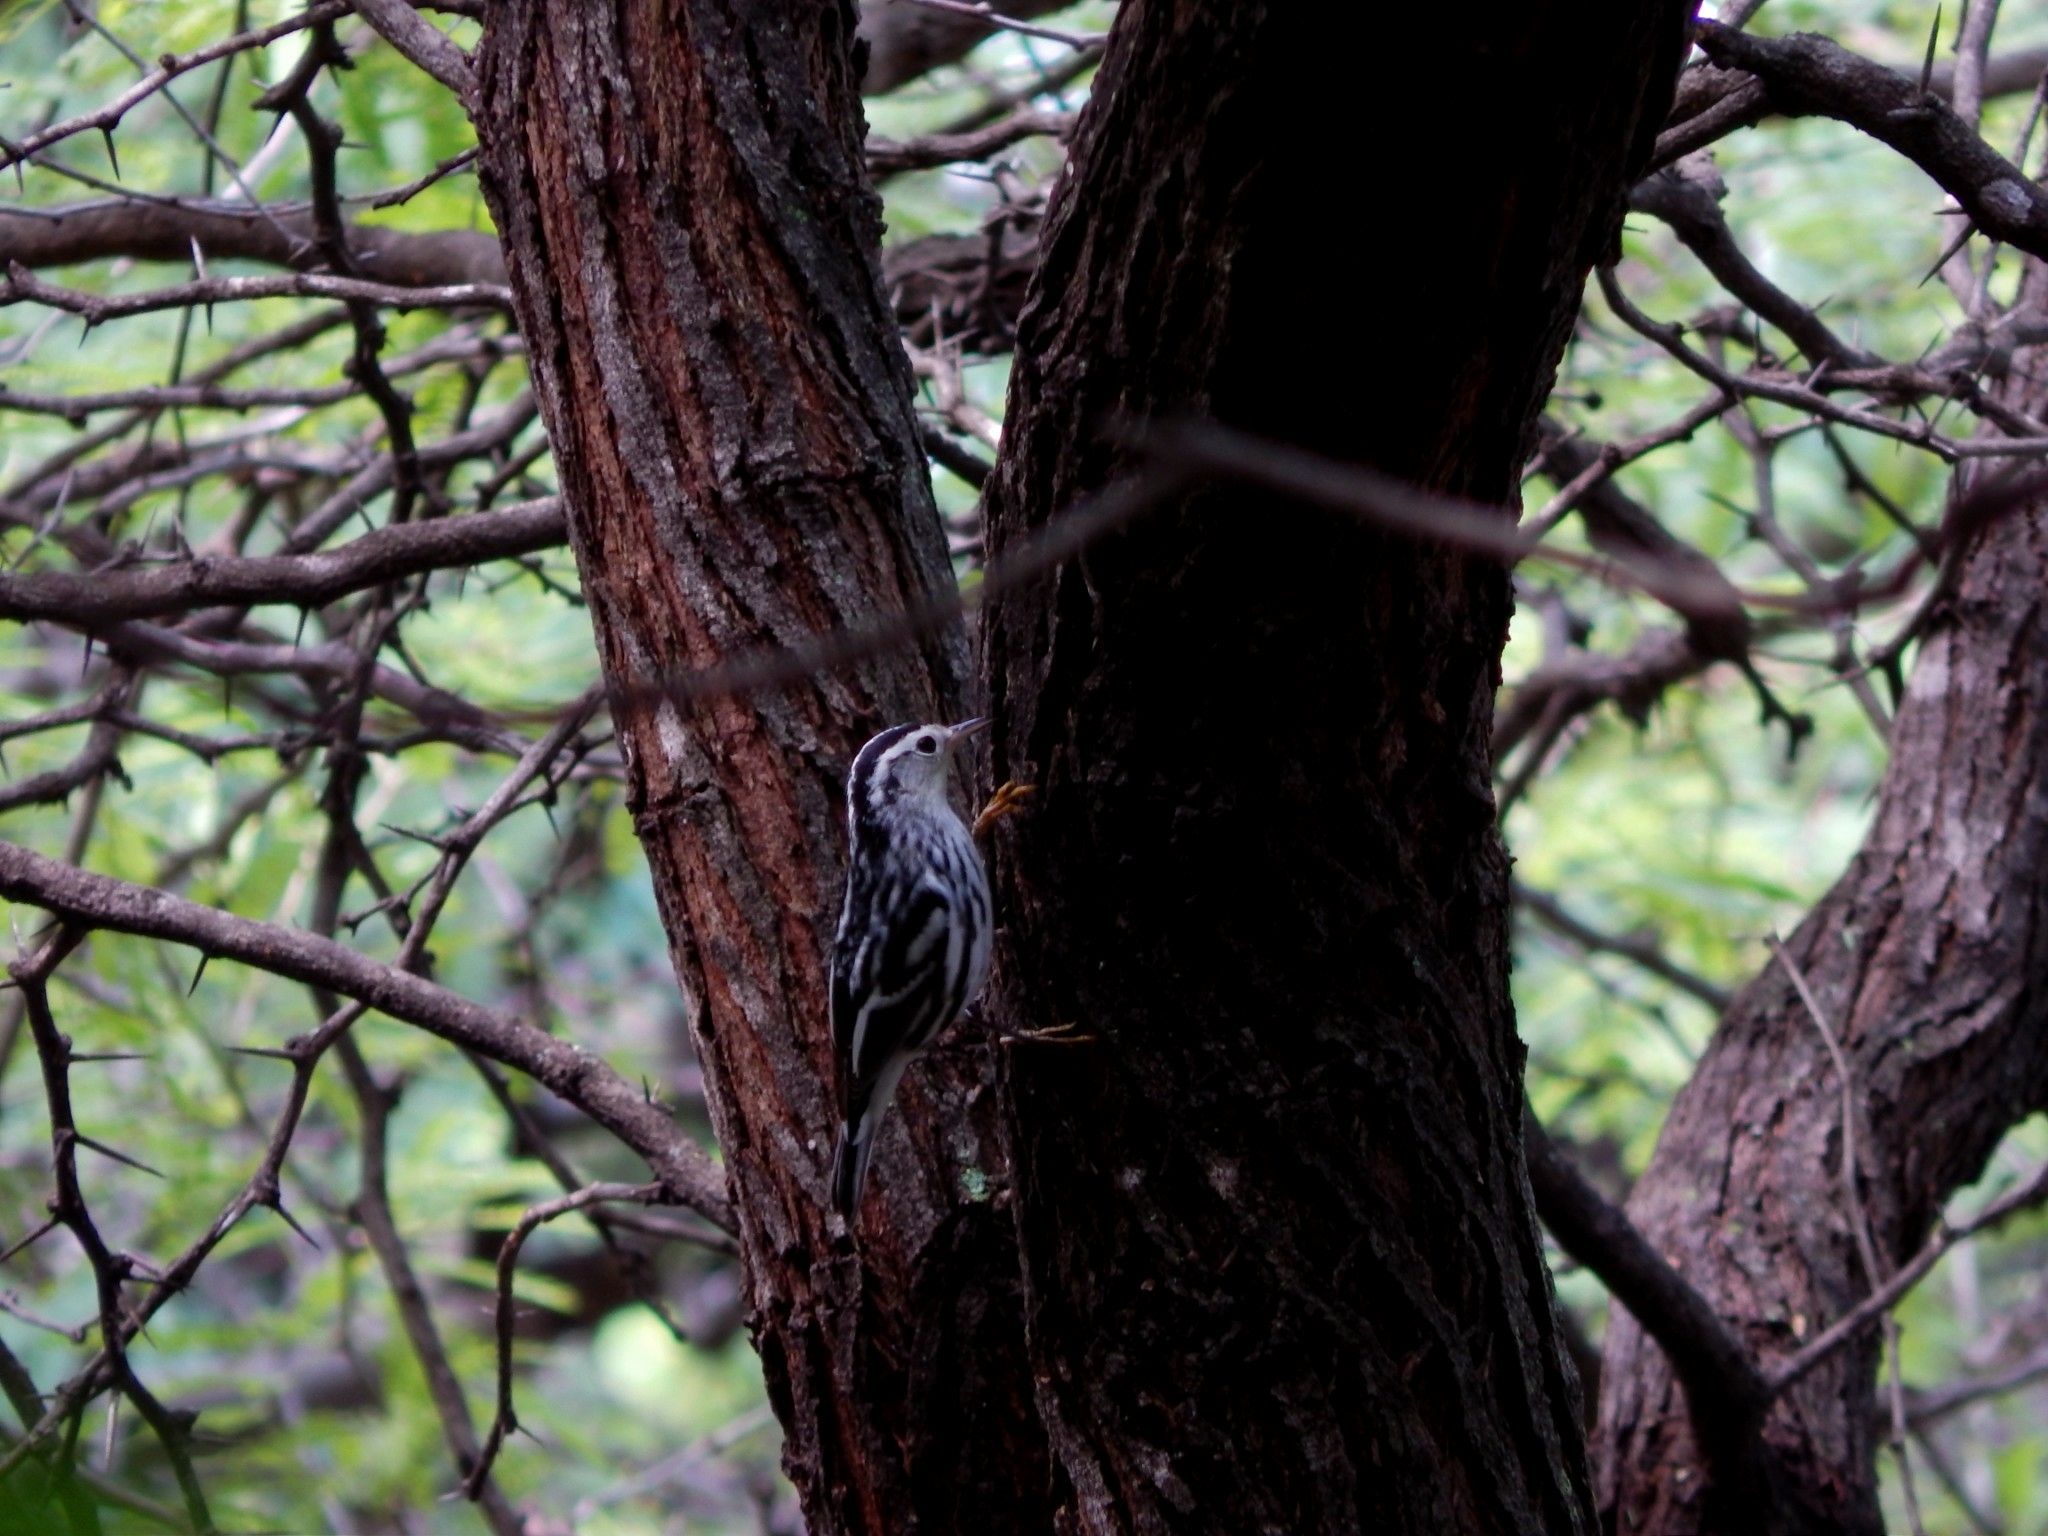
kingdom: Animalia
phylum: Chordata
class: Aves
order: Passeriformes
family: Parulidae
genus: Mniotilta
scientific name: Mniotilta varia
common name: Black-and-white warbler
